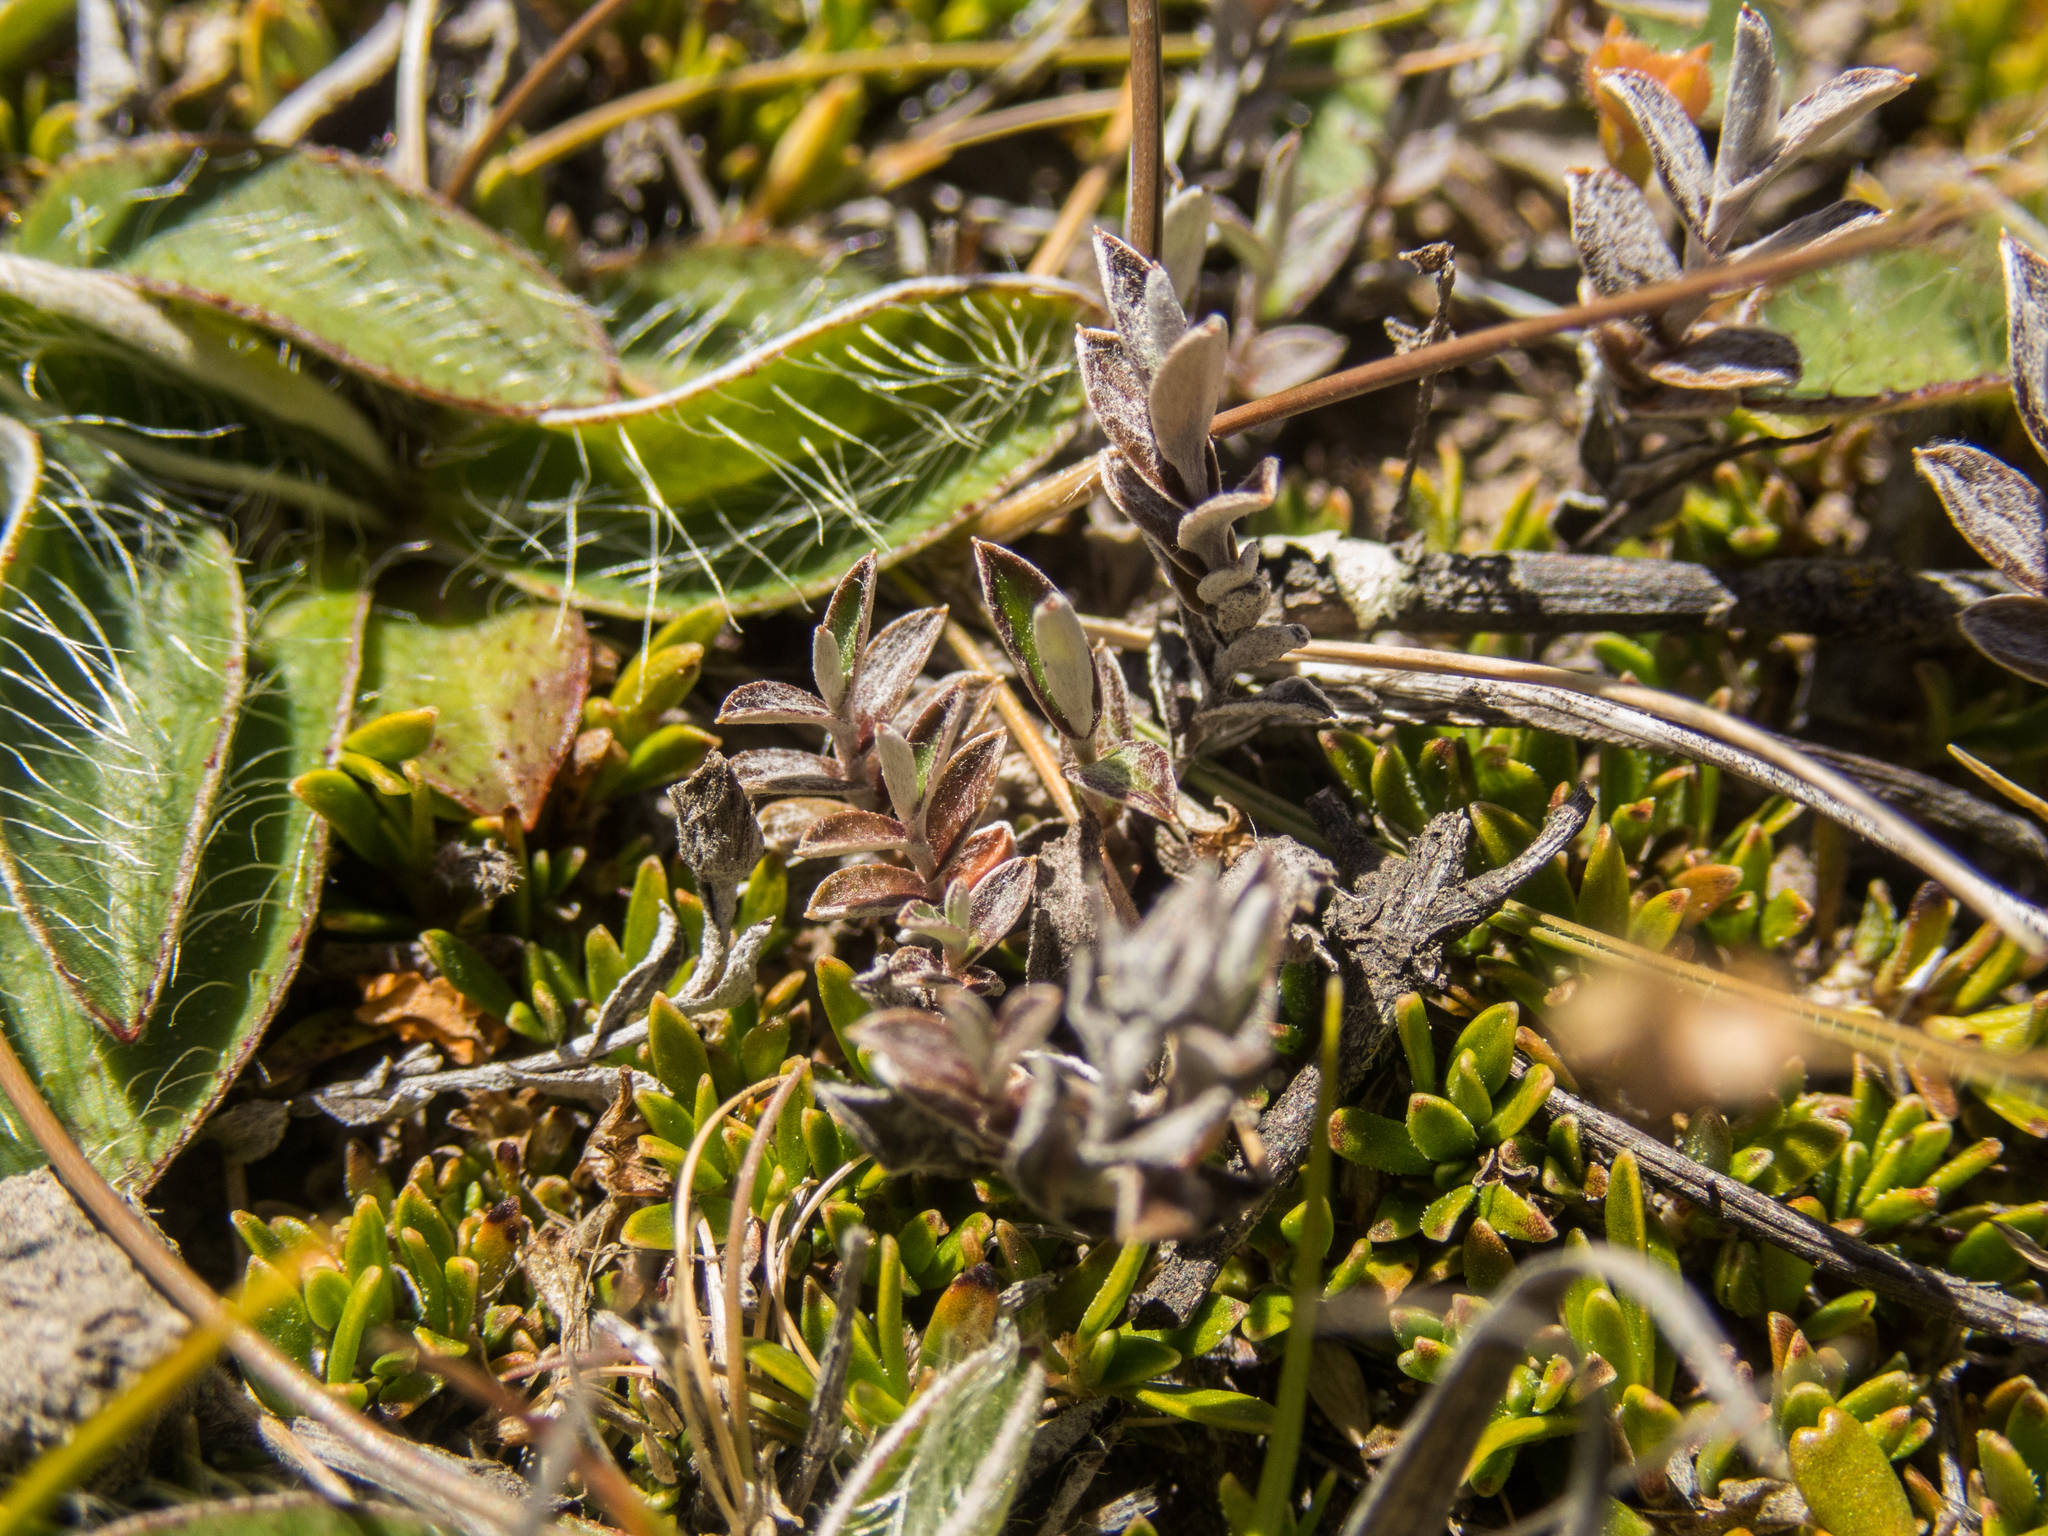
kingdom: Plantae
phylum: Tracheophyta
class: Magnoliopsida
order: Asterales
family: Asteraceae
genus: Helichrysum
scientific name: Helichrysum filicaule
